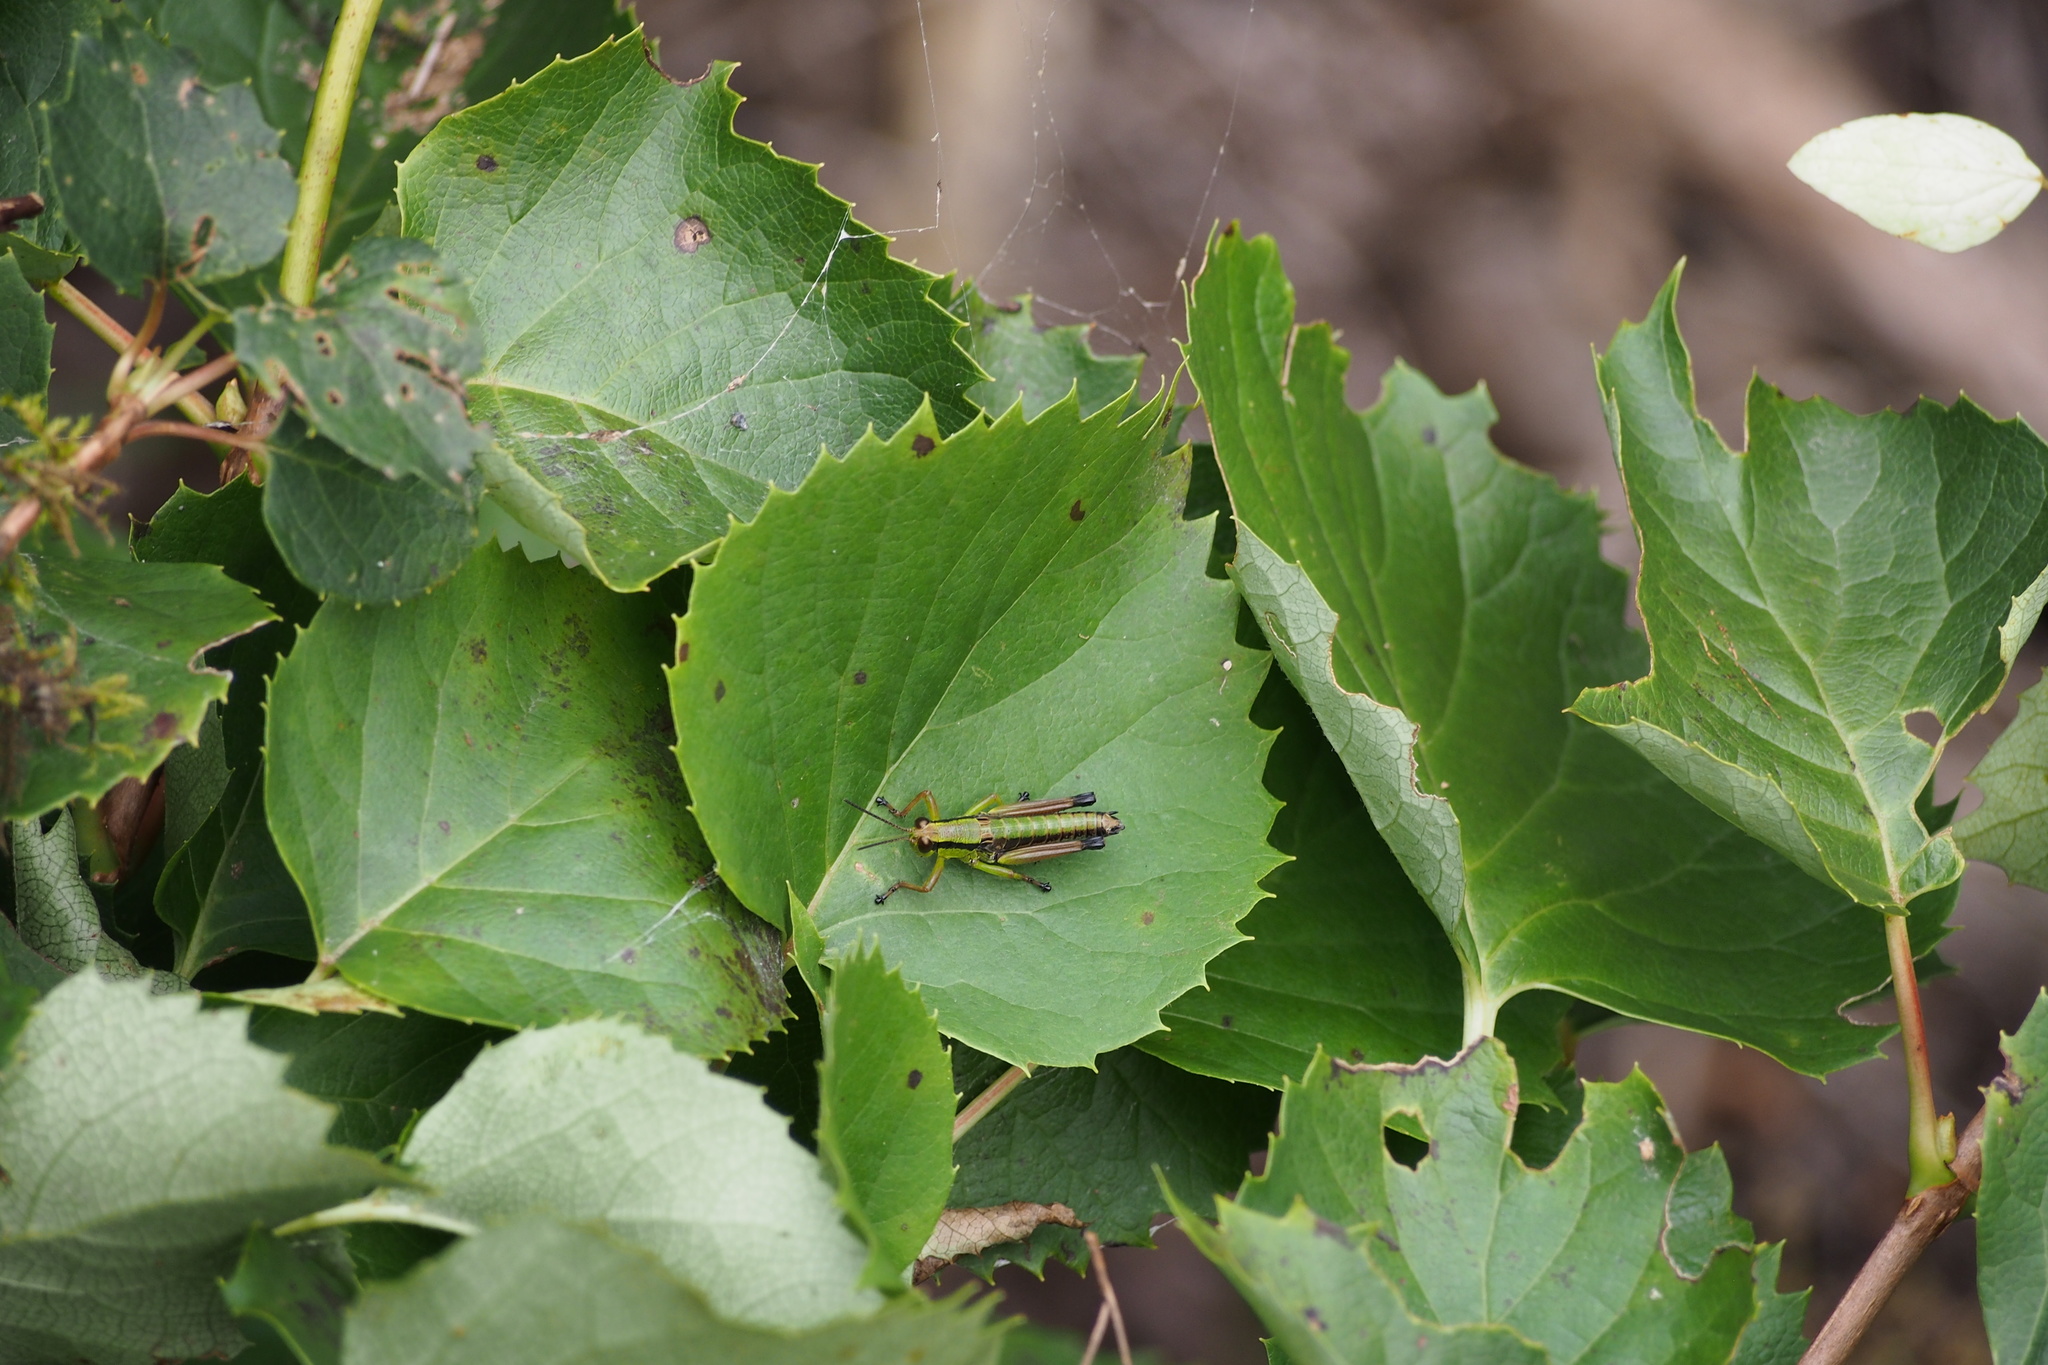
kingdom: Plantae
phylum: Tracheophyta
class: Magnoliopsida
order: Cornales
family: Hydrangeaceae
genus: Hydrangea
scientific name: Hydrangea hydrangeoides
